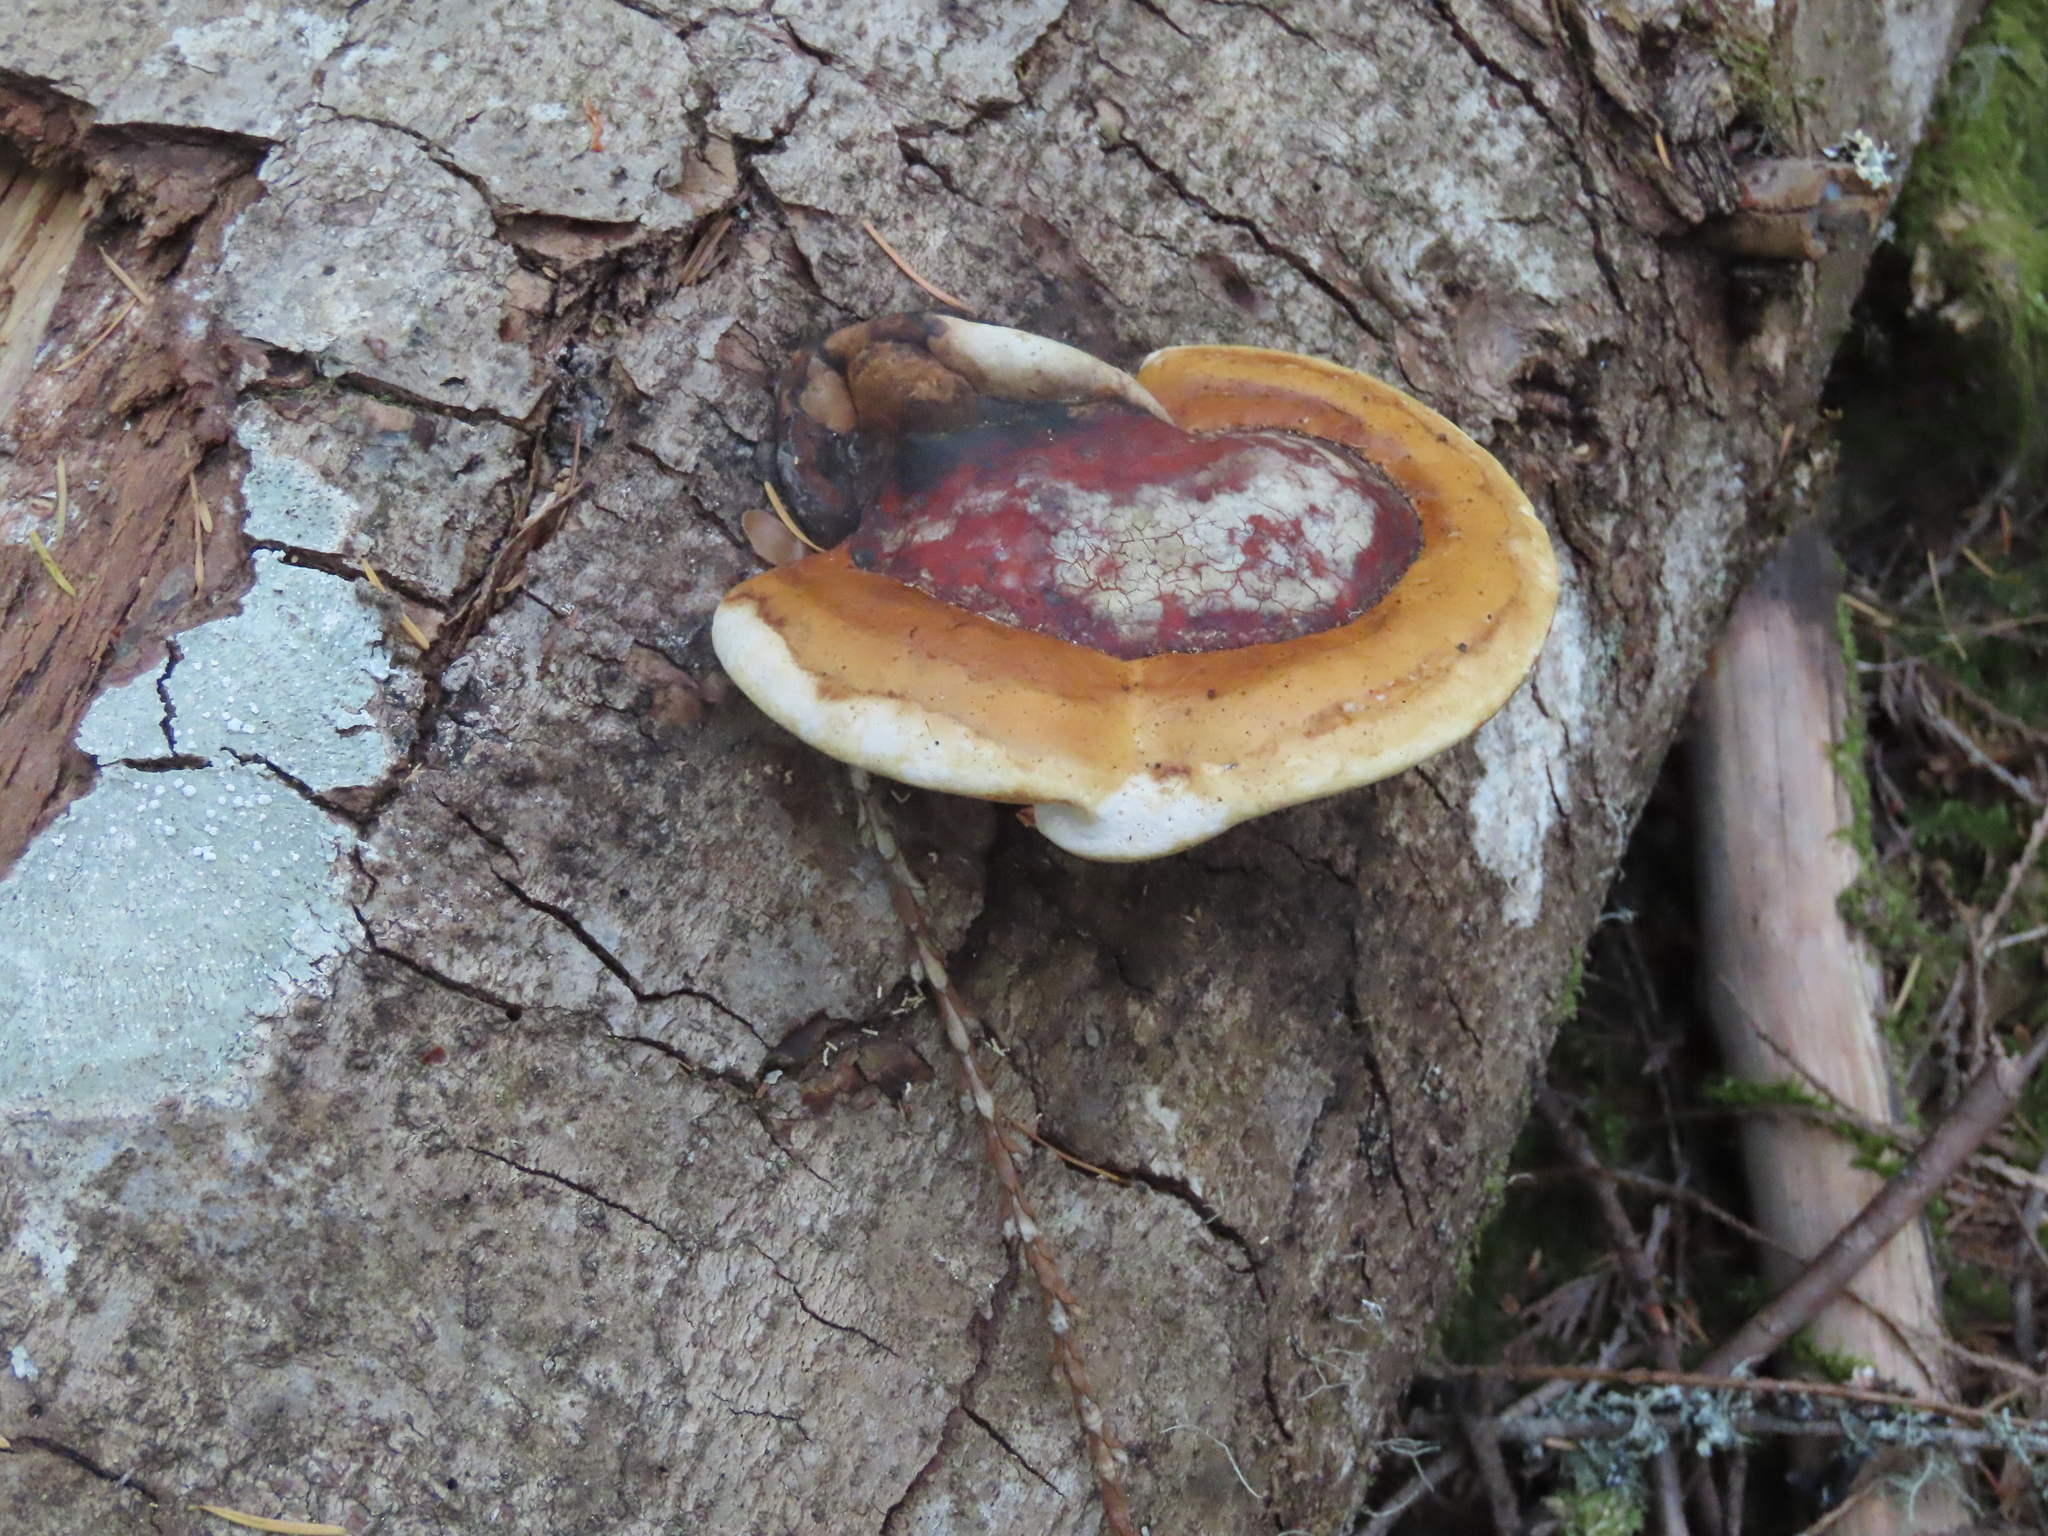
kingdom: Fungi
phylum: Basidiomycota
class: Agaricomycetes
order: Polyporales
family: Fomitopsidaceae
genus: Fomitopsis
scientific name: Fomitopsis mounceae
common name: Northern red belt
